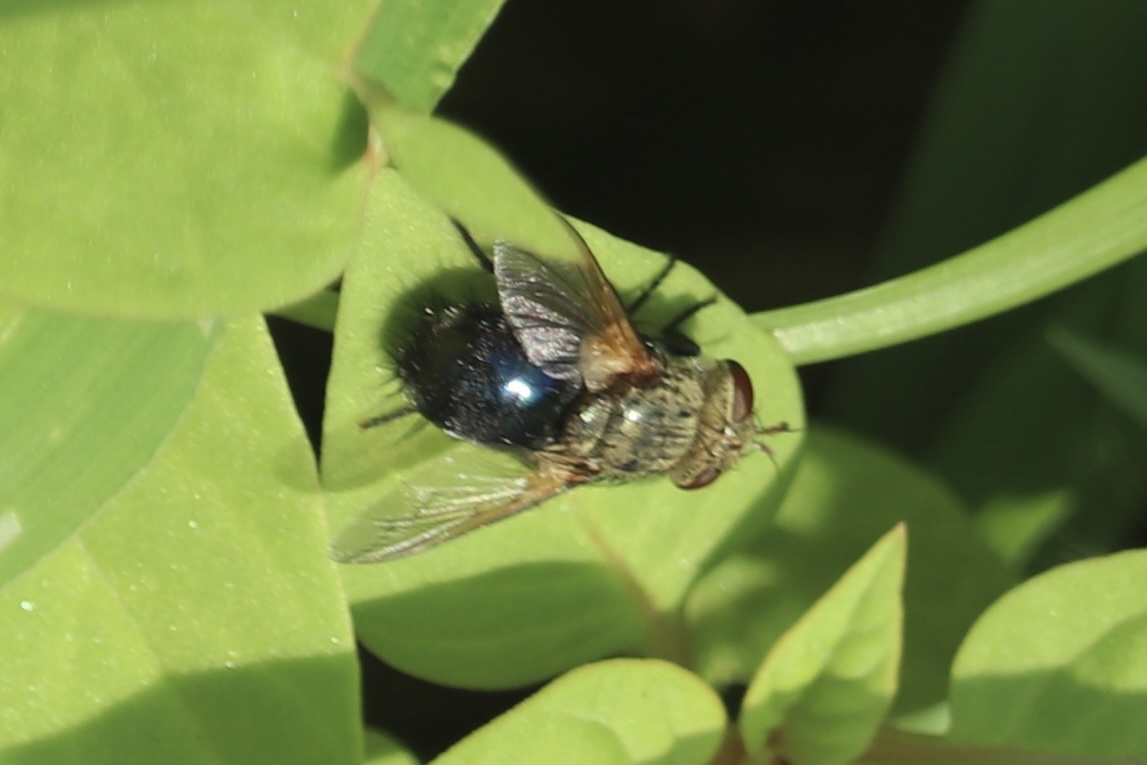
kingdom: Animalia
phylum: Arthropoda
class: Insecta
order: Diptera
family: Tachinidae
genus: Archytas
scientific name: Archytas apicifer
